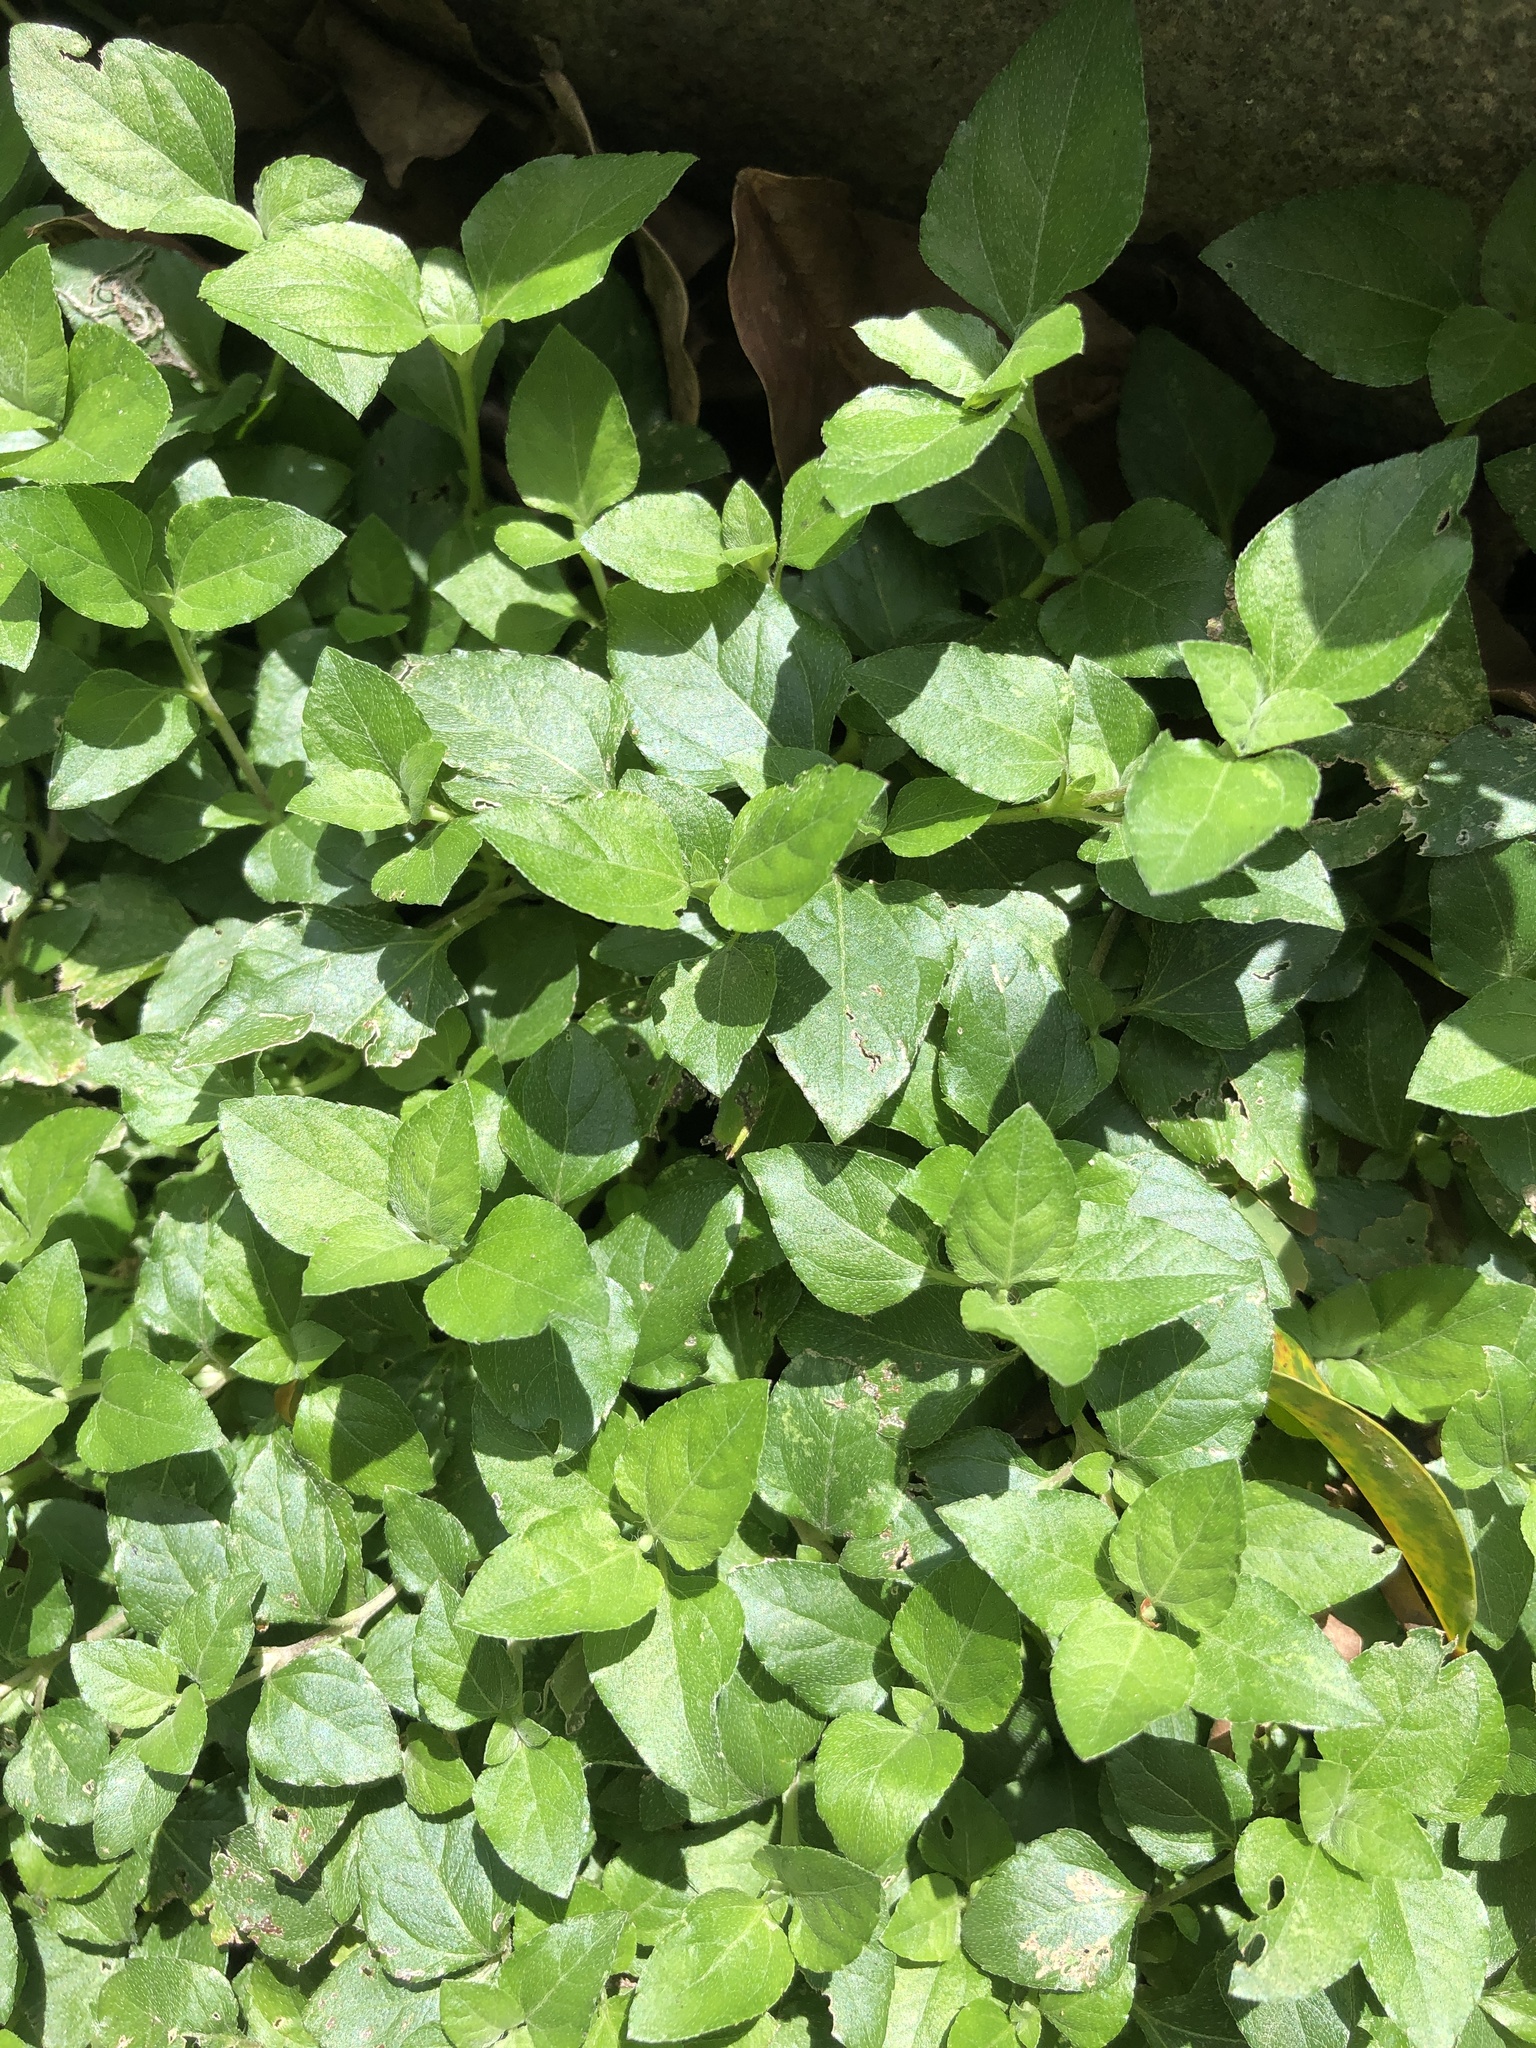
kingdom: Plantae
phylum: Tracheophyta
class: Magnoliopsida
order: Asterales
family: Asteraceae
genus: Calyptocarpus
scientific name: Calyptocarpus vialis
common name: Straggler daisy
